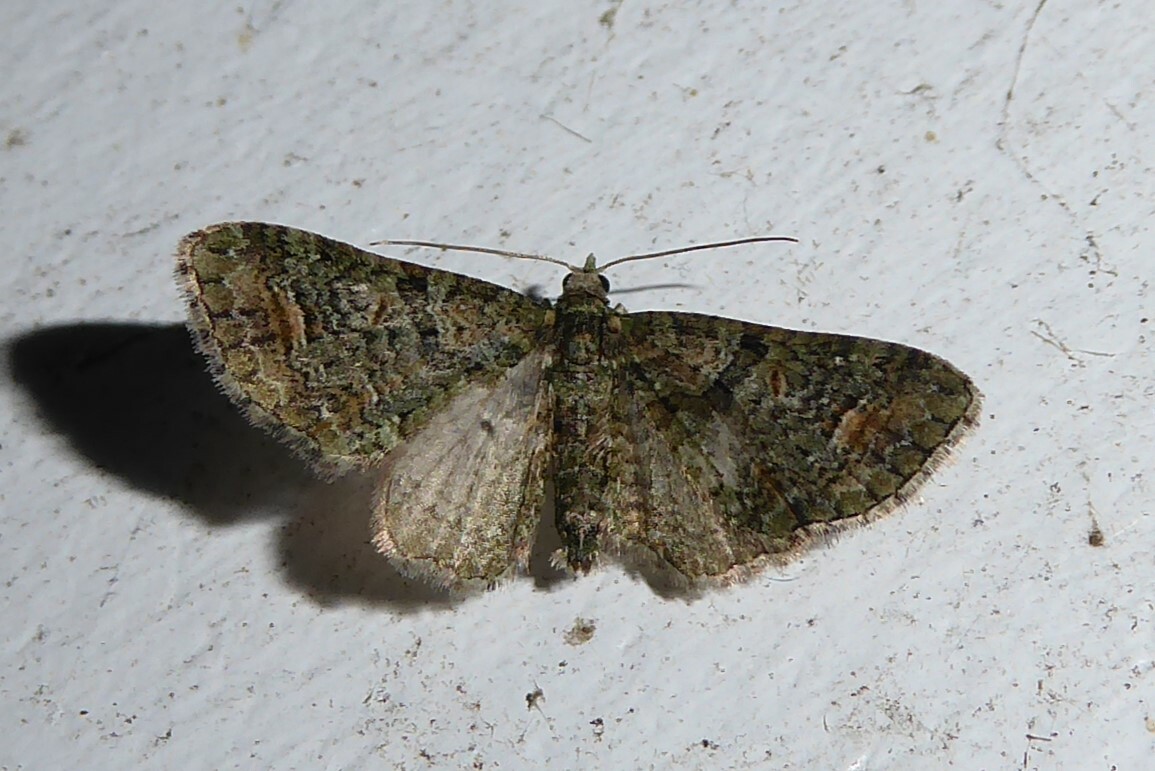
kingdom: Animalia
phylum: Arthropoda
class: Insecta
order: Lepidoptera
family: Geometridae
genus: Idaea
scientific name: Idaea mutanda
